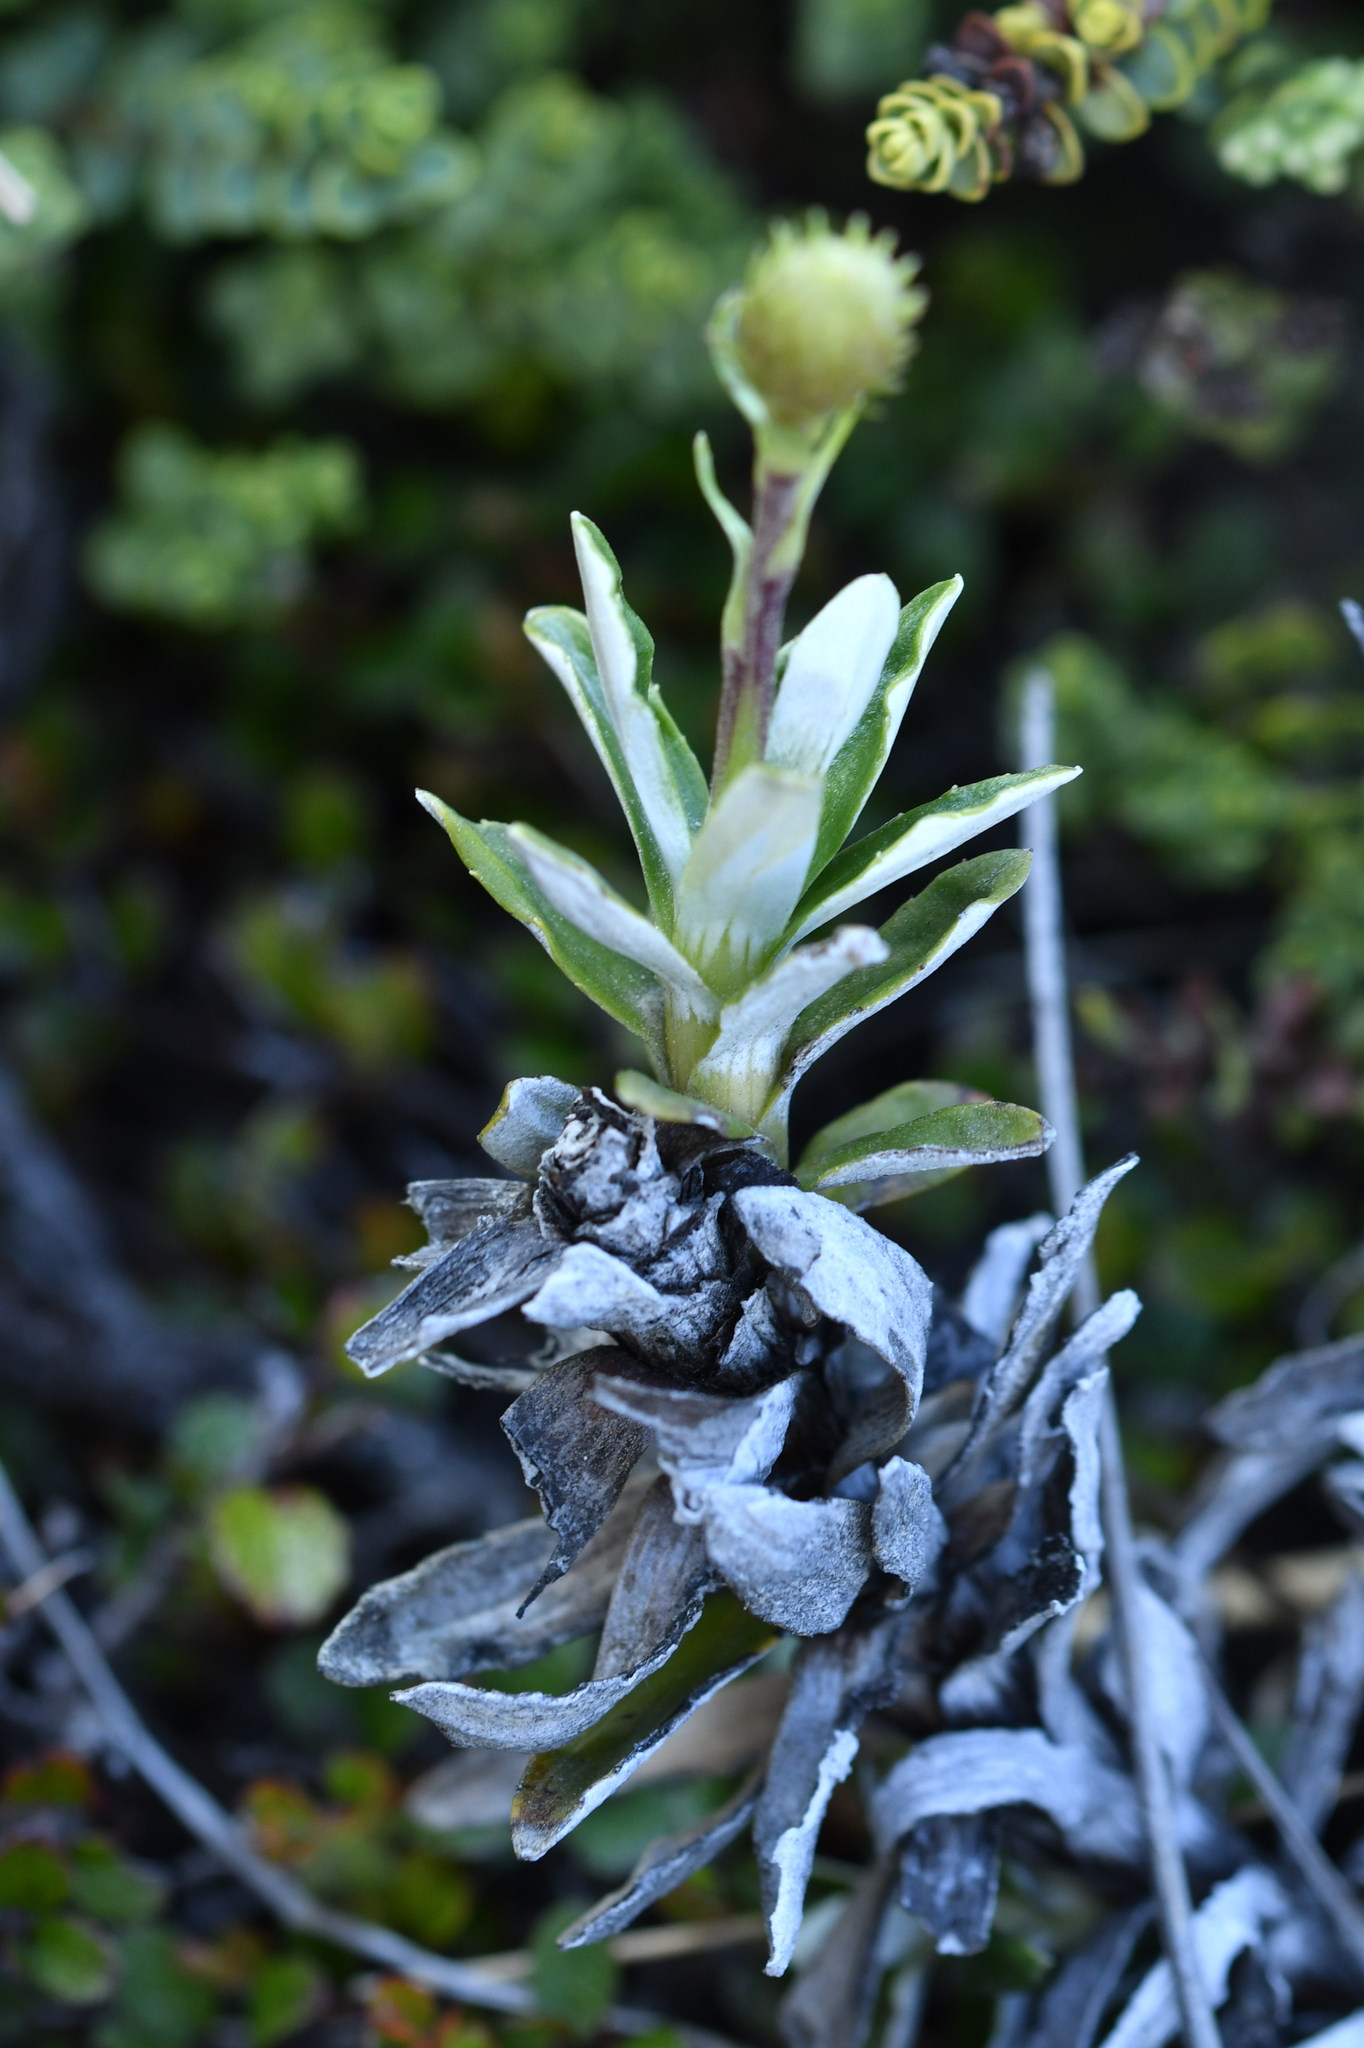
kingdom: Plantae
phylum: Tracheophyta
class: Magnoliopsida
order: Asterales
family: Asteraceae
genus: Celmisia
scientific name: Celmisia angustifolia
